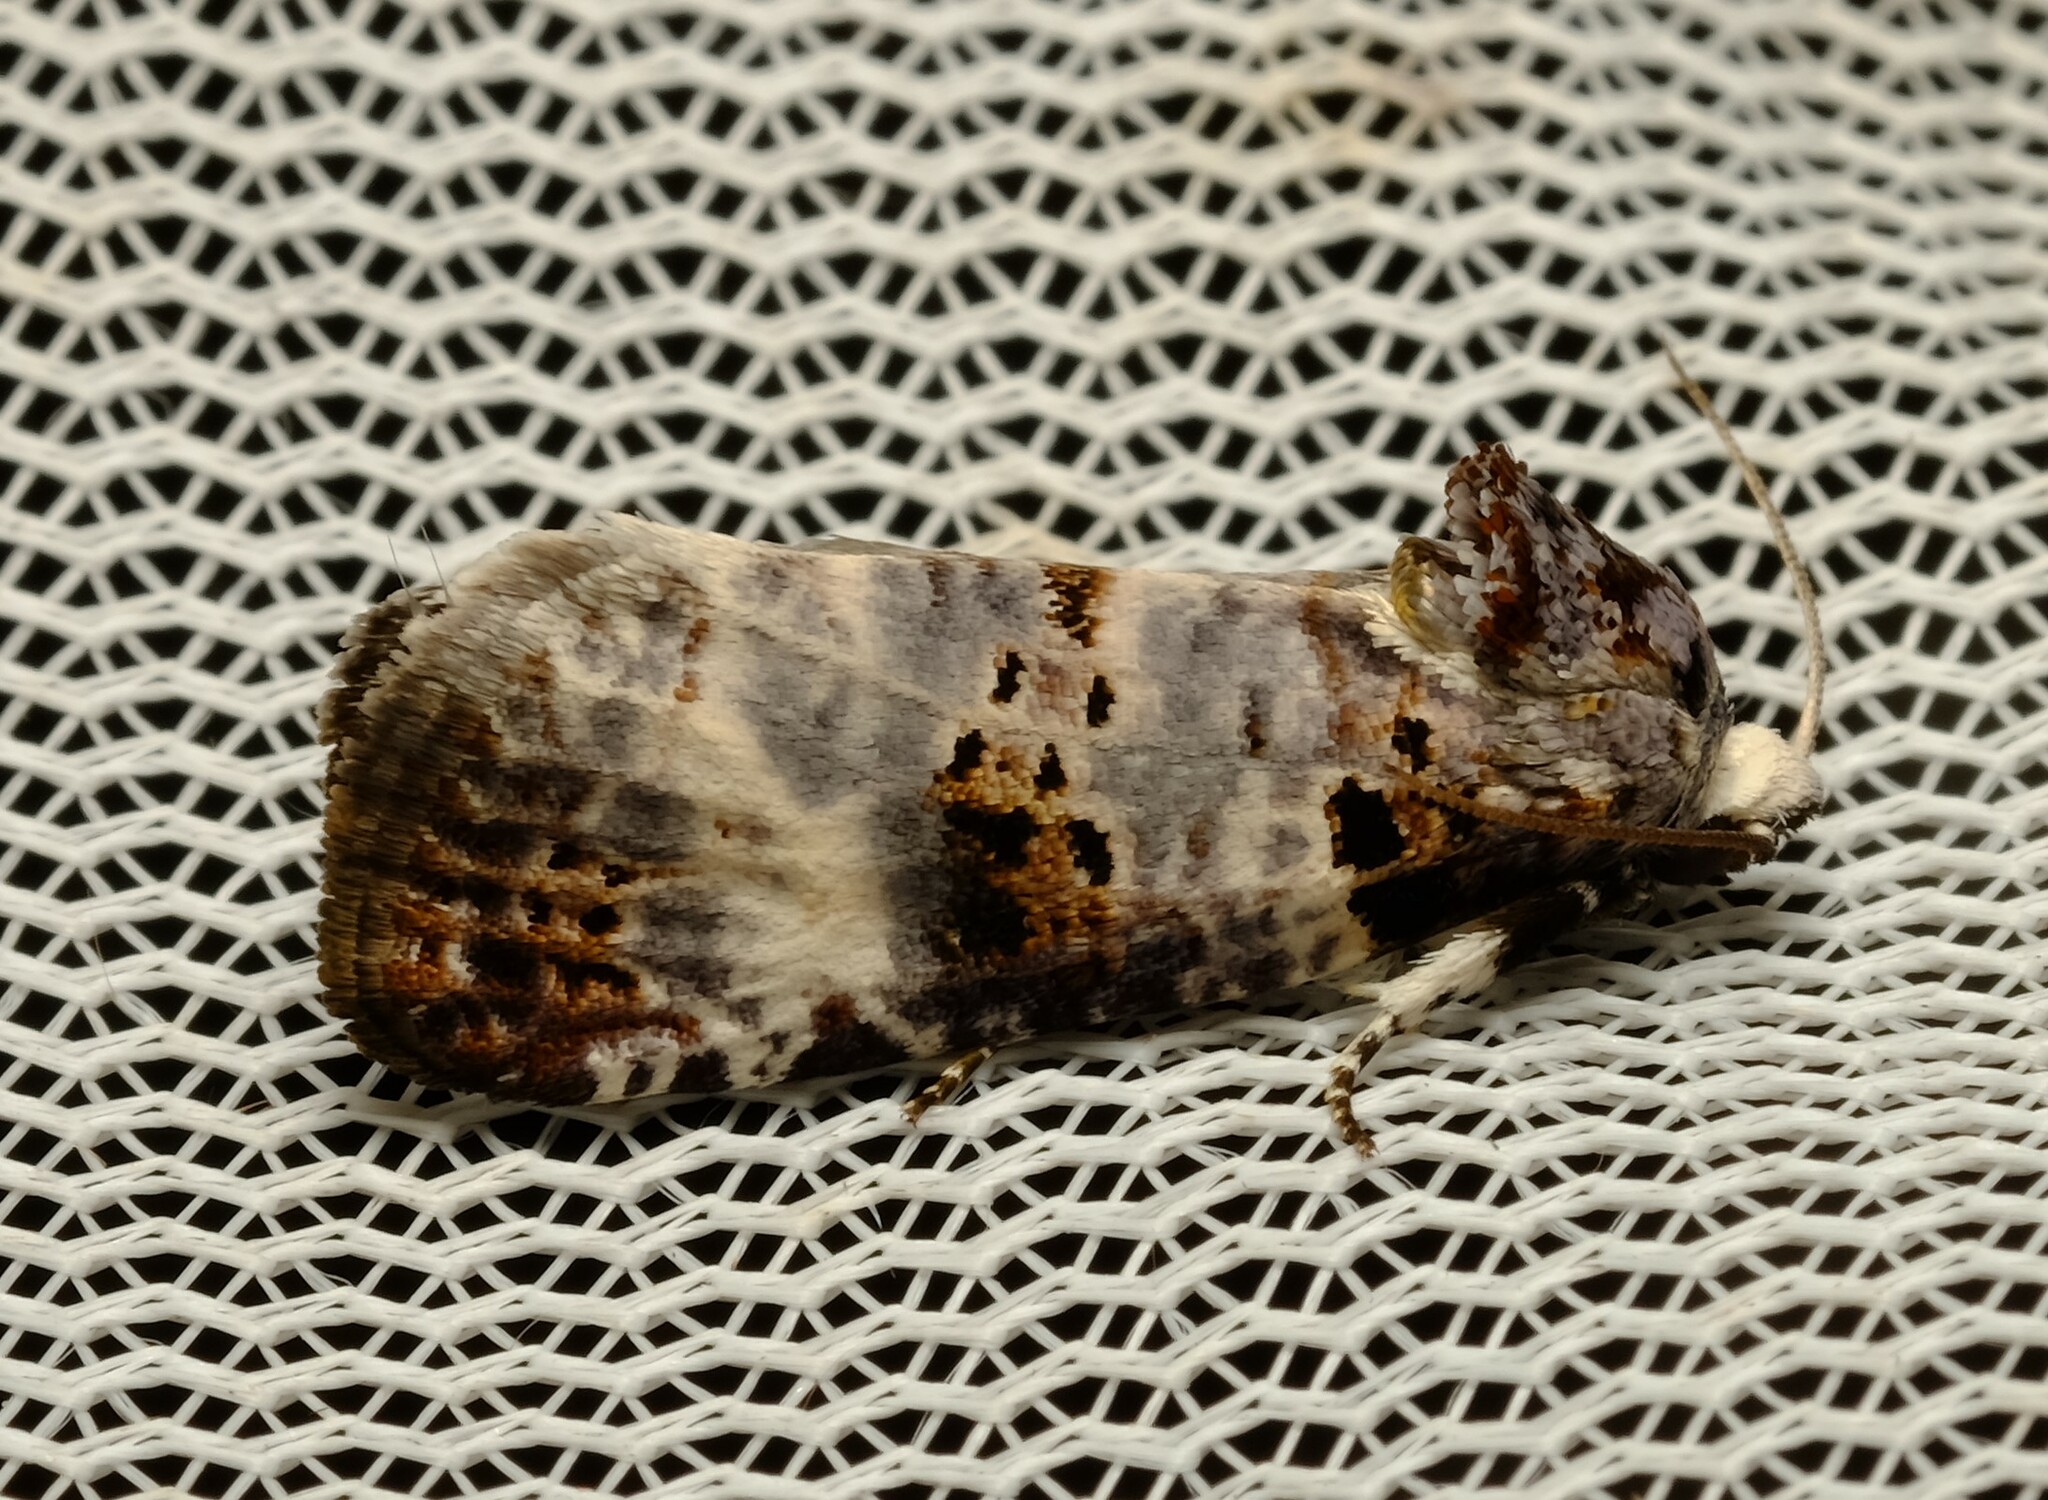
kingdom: Animalia
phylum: Arthropoda
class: Insecta
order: Lepidoptera
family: Cossidae
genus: Idioses
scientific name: Idioses littleri
